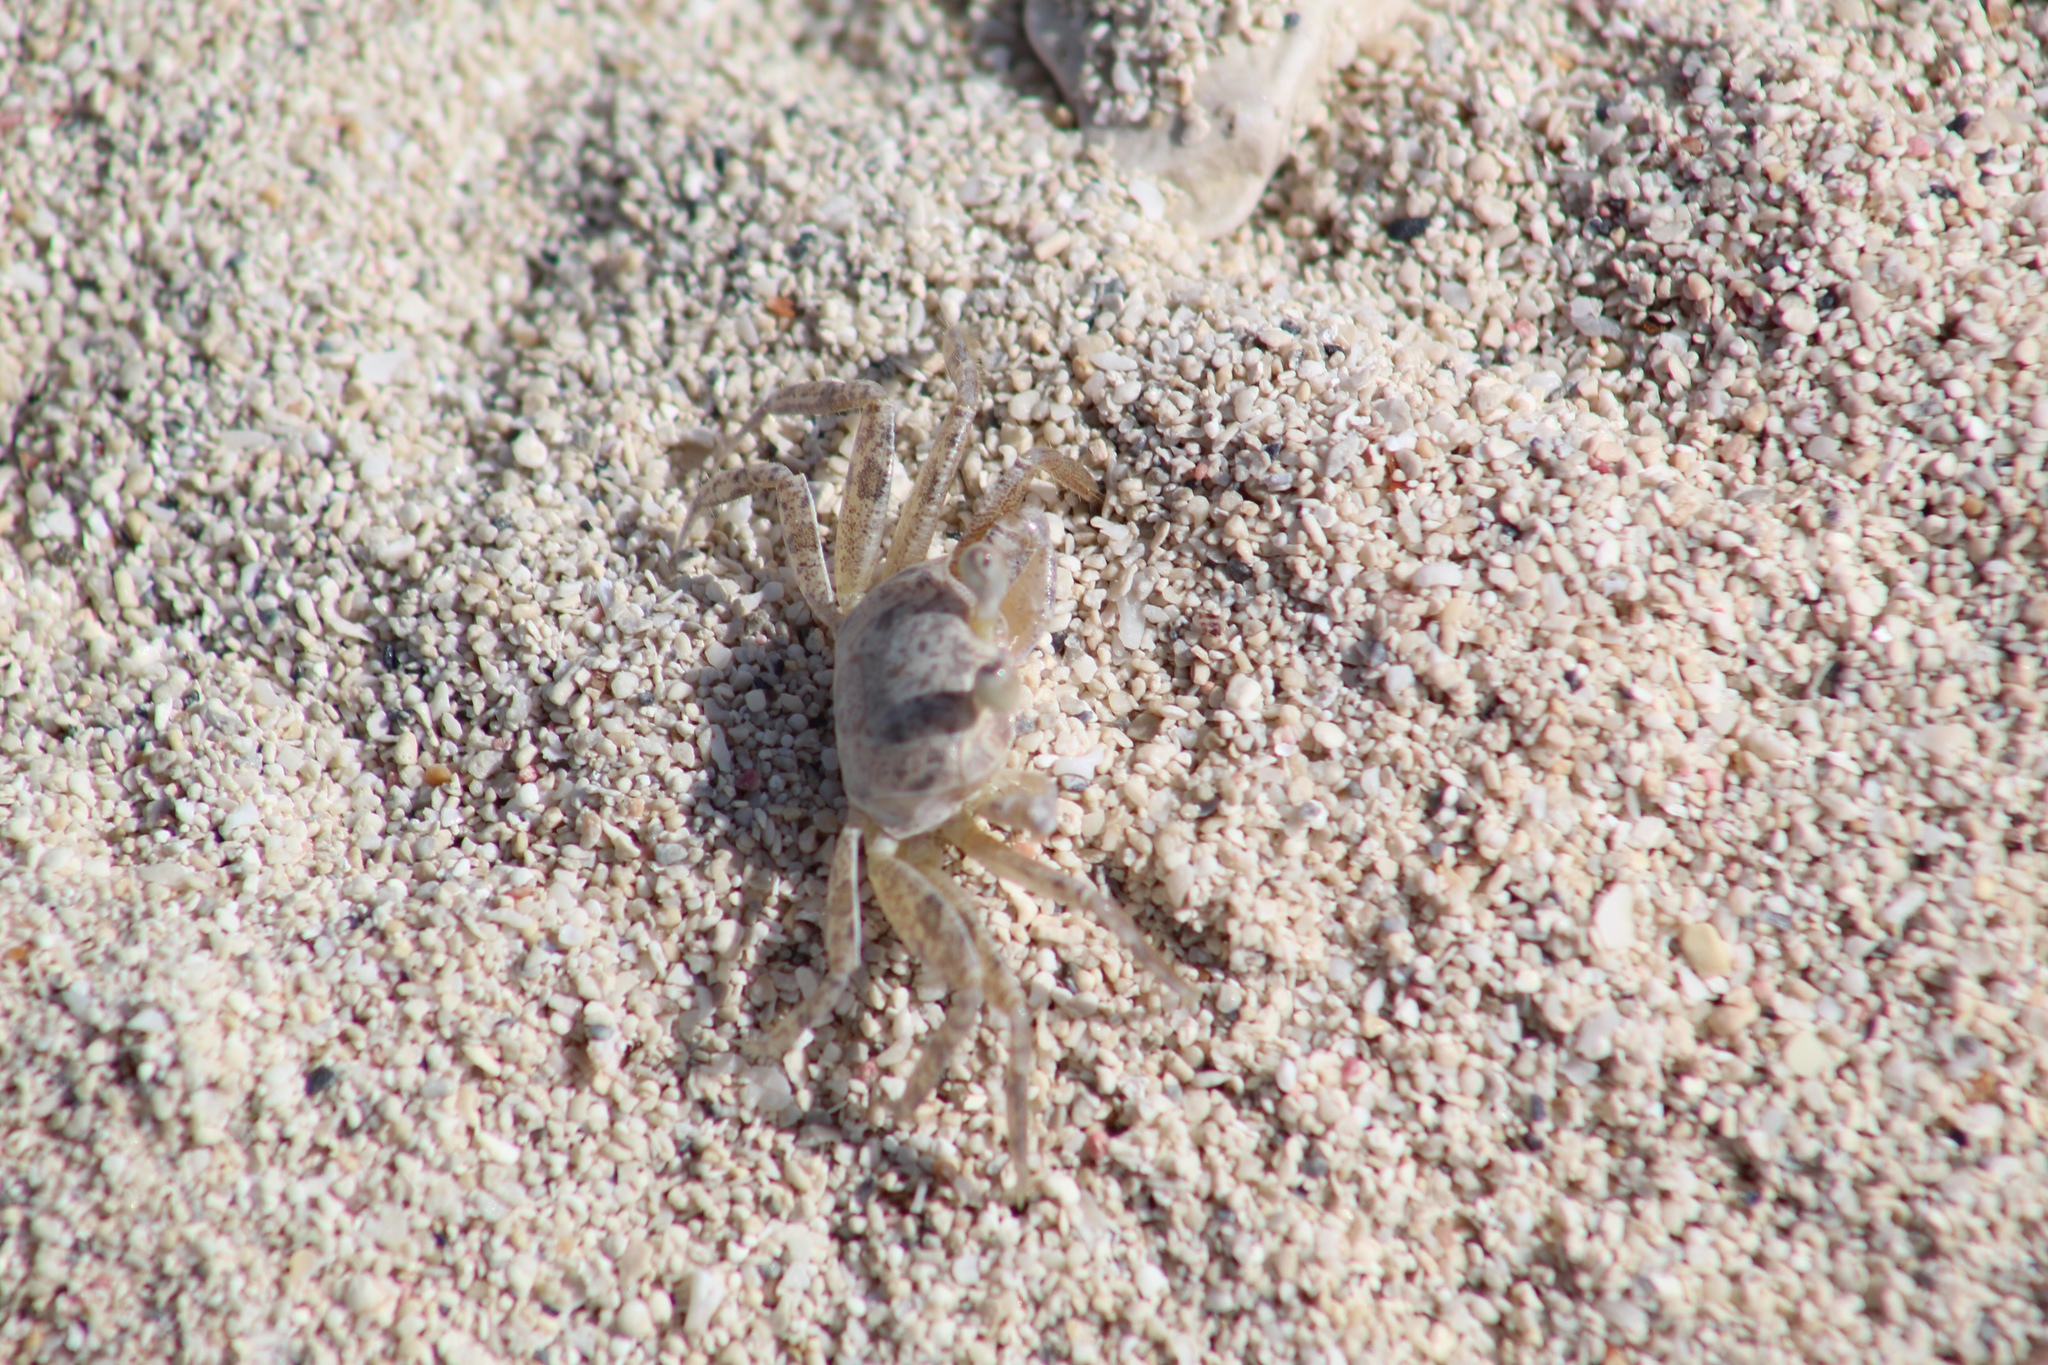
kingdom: Animalia
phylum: Arthropoda
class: Malacostraca
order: Decapoda
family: Ocypodidae
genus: Ocypode
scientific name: Ocypode quadrata
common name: Ghost crab
